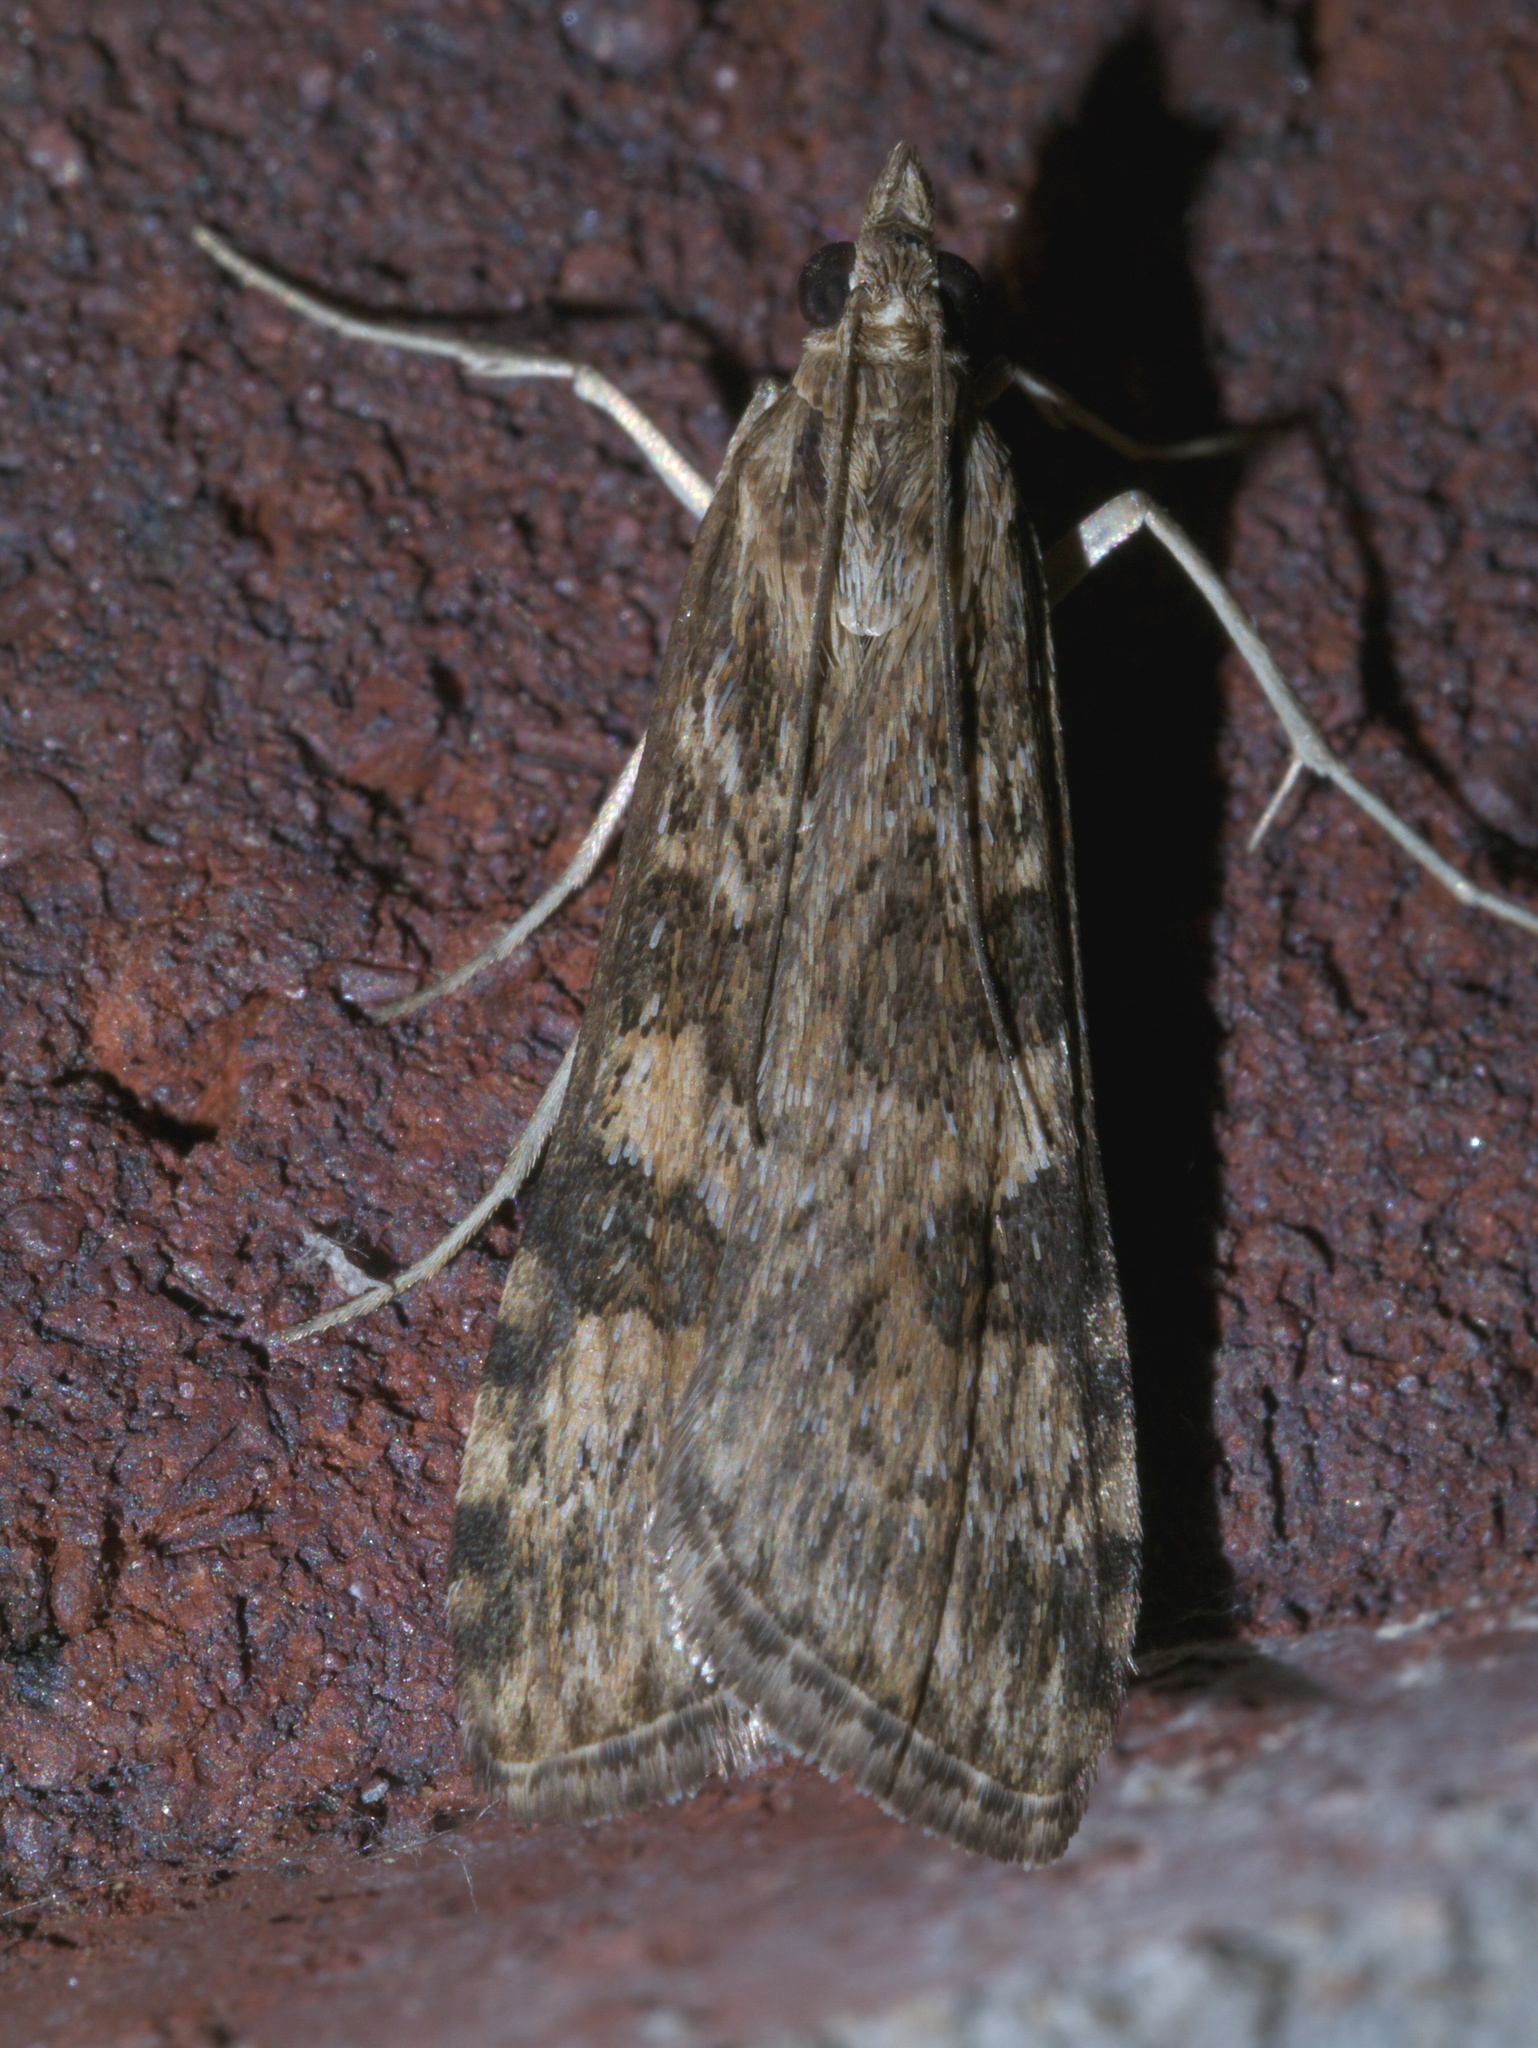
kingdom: Animalia
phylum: Arthropoda
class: Insecta
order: Lepidoptera
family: Crambidae
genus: Nomophila
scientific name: Nomophila nearctica
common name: American rush veneer
